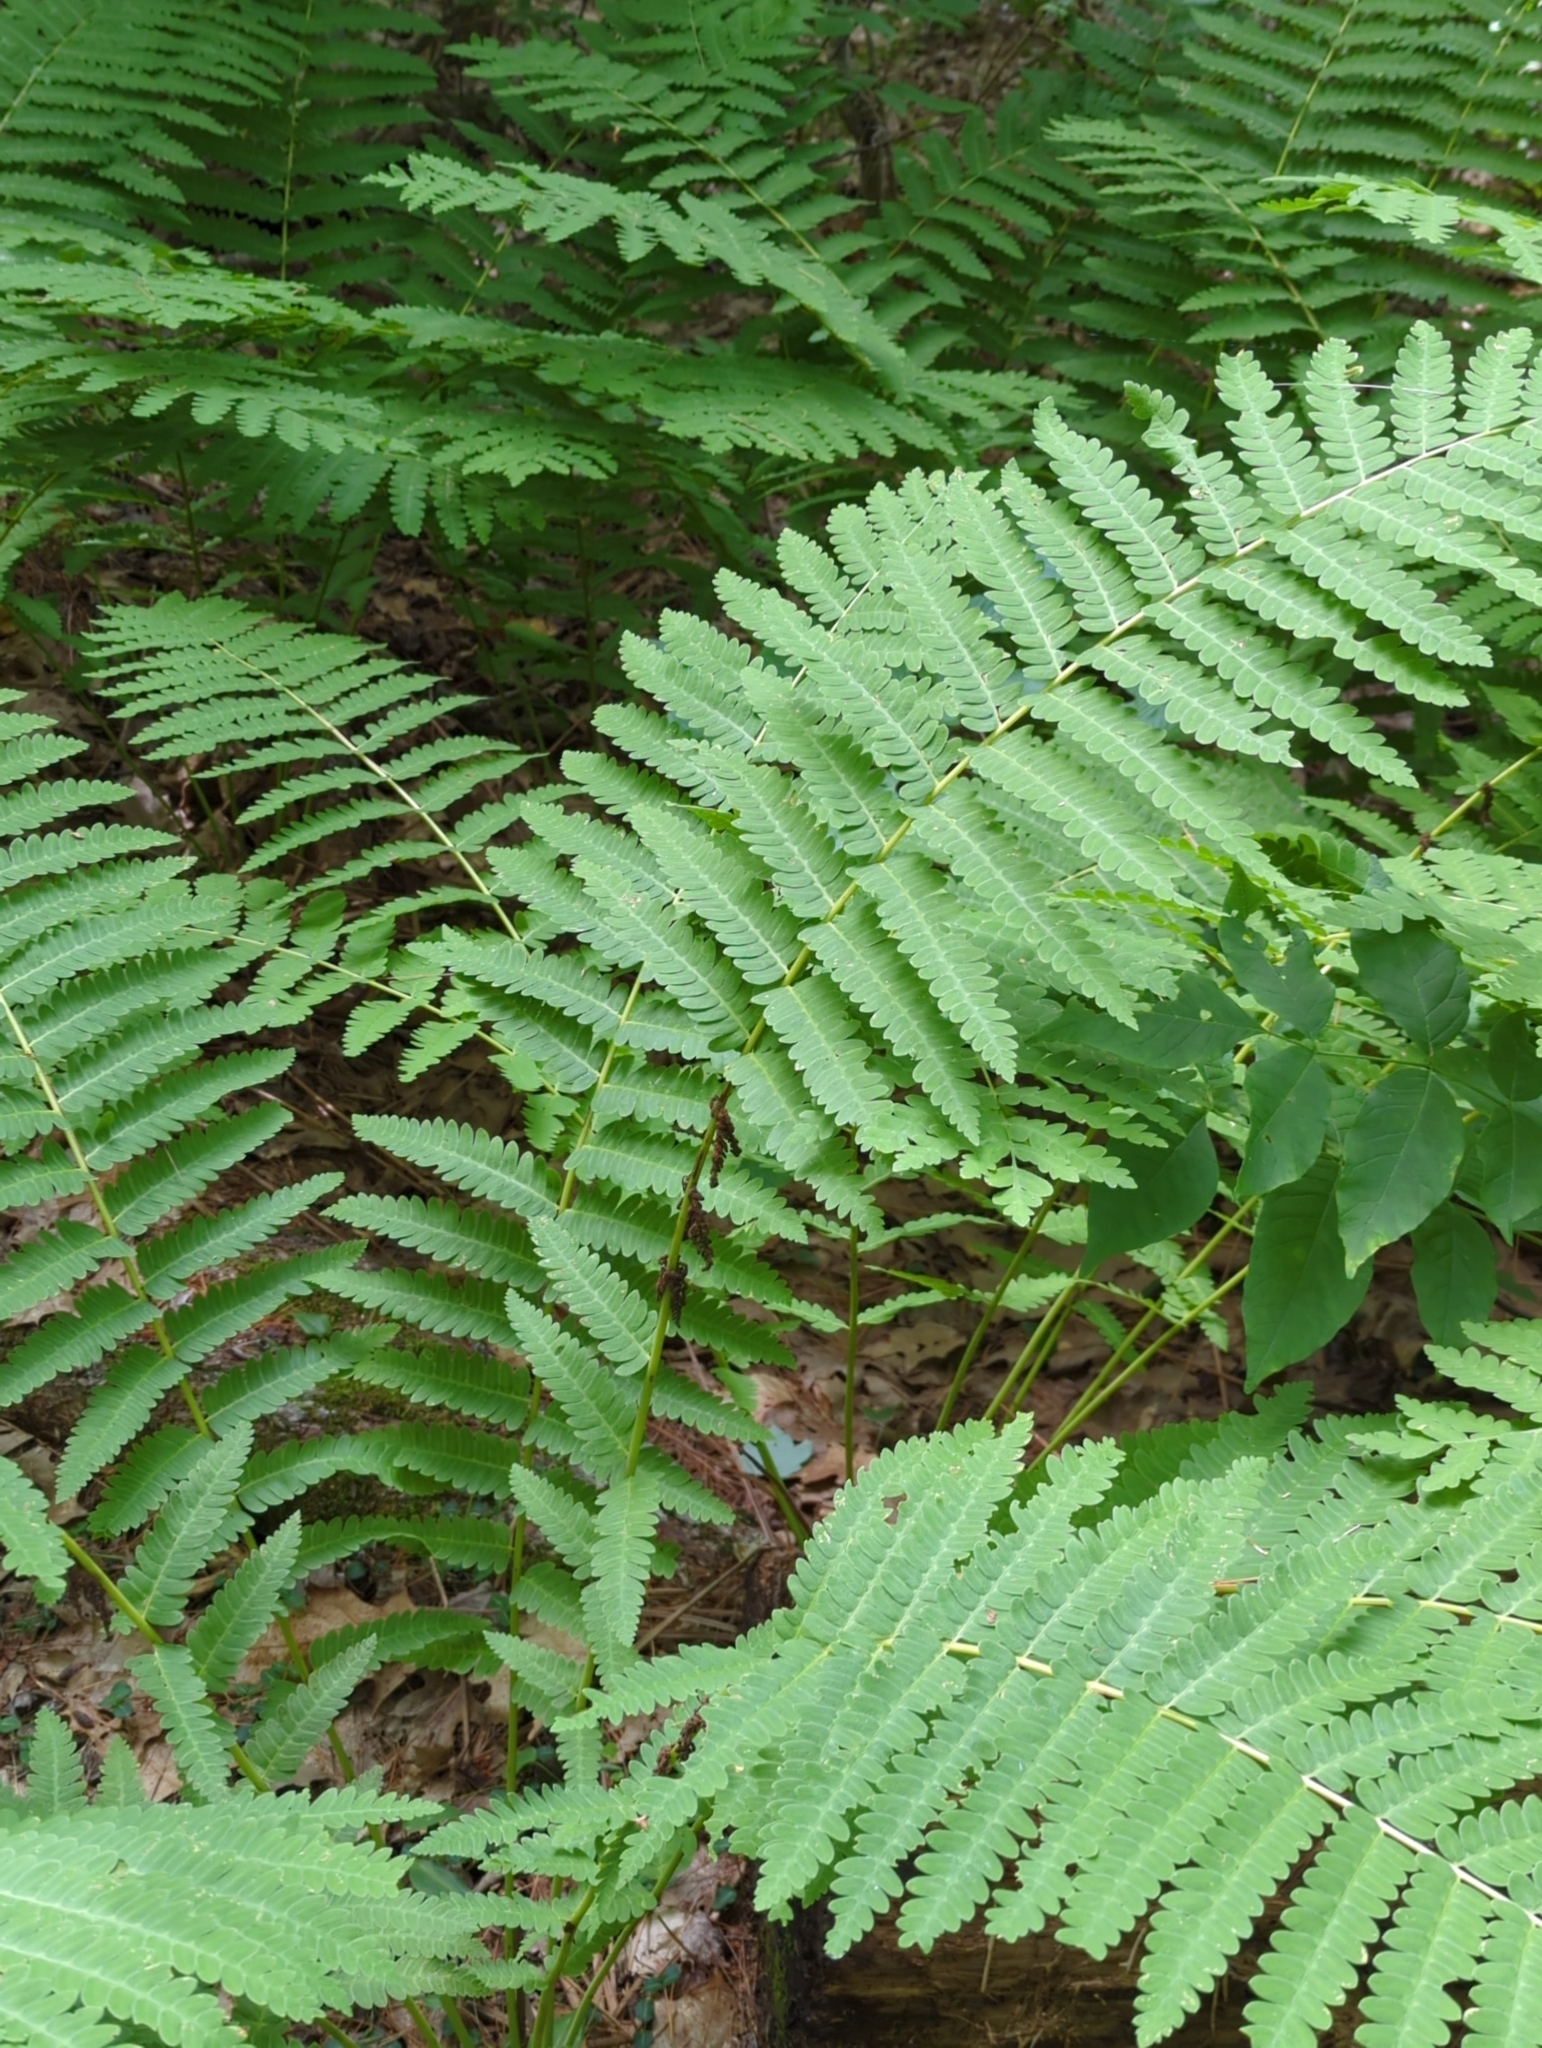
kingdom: Plantae
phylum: Tracheophyta
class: Polypodiopsida
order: Osmundales
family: Osmundaceae
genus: Claytosmunda
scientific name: Claytosmunda claytoniana
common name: Clayton's fern
